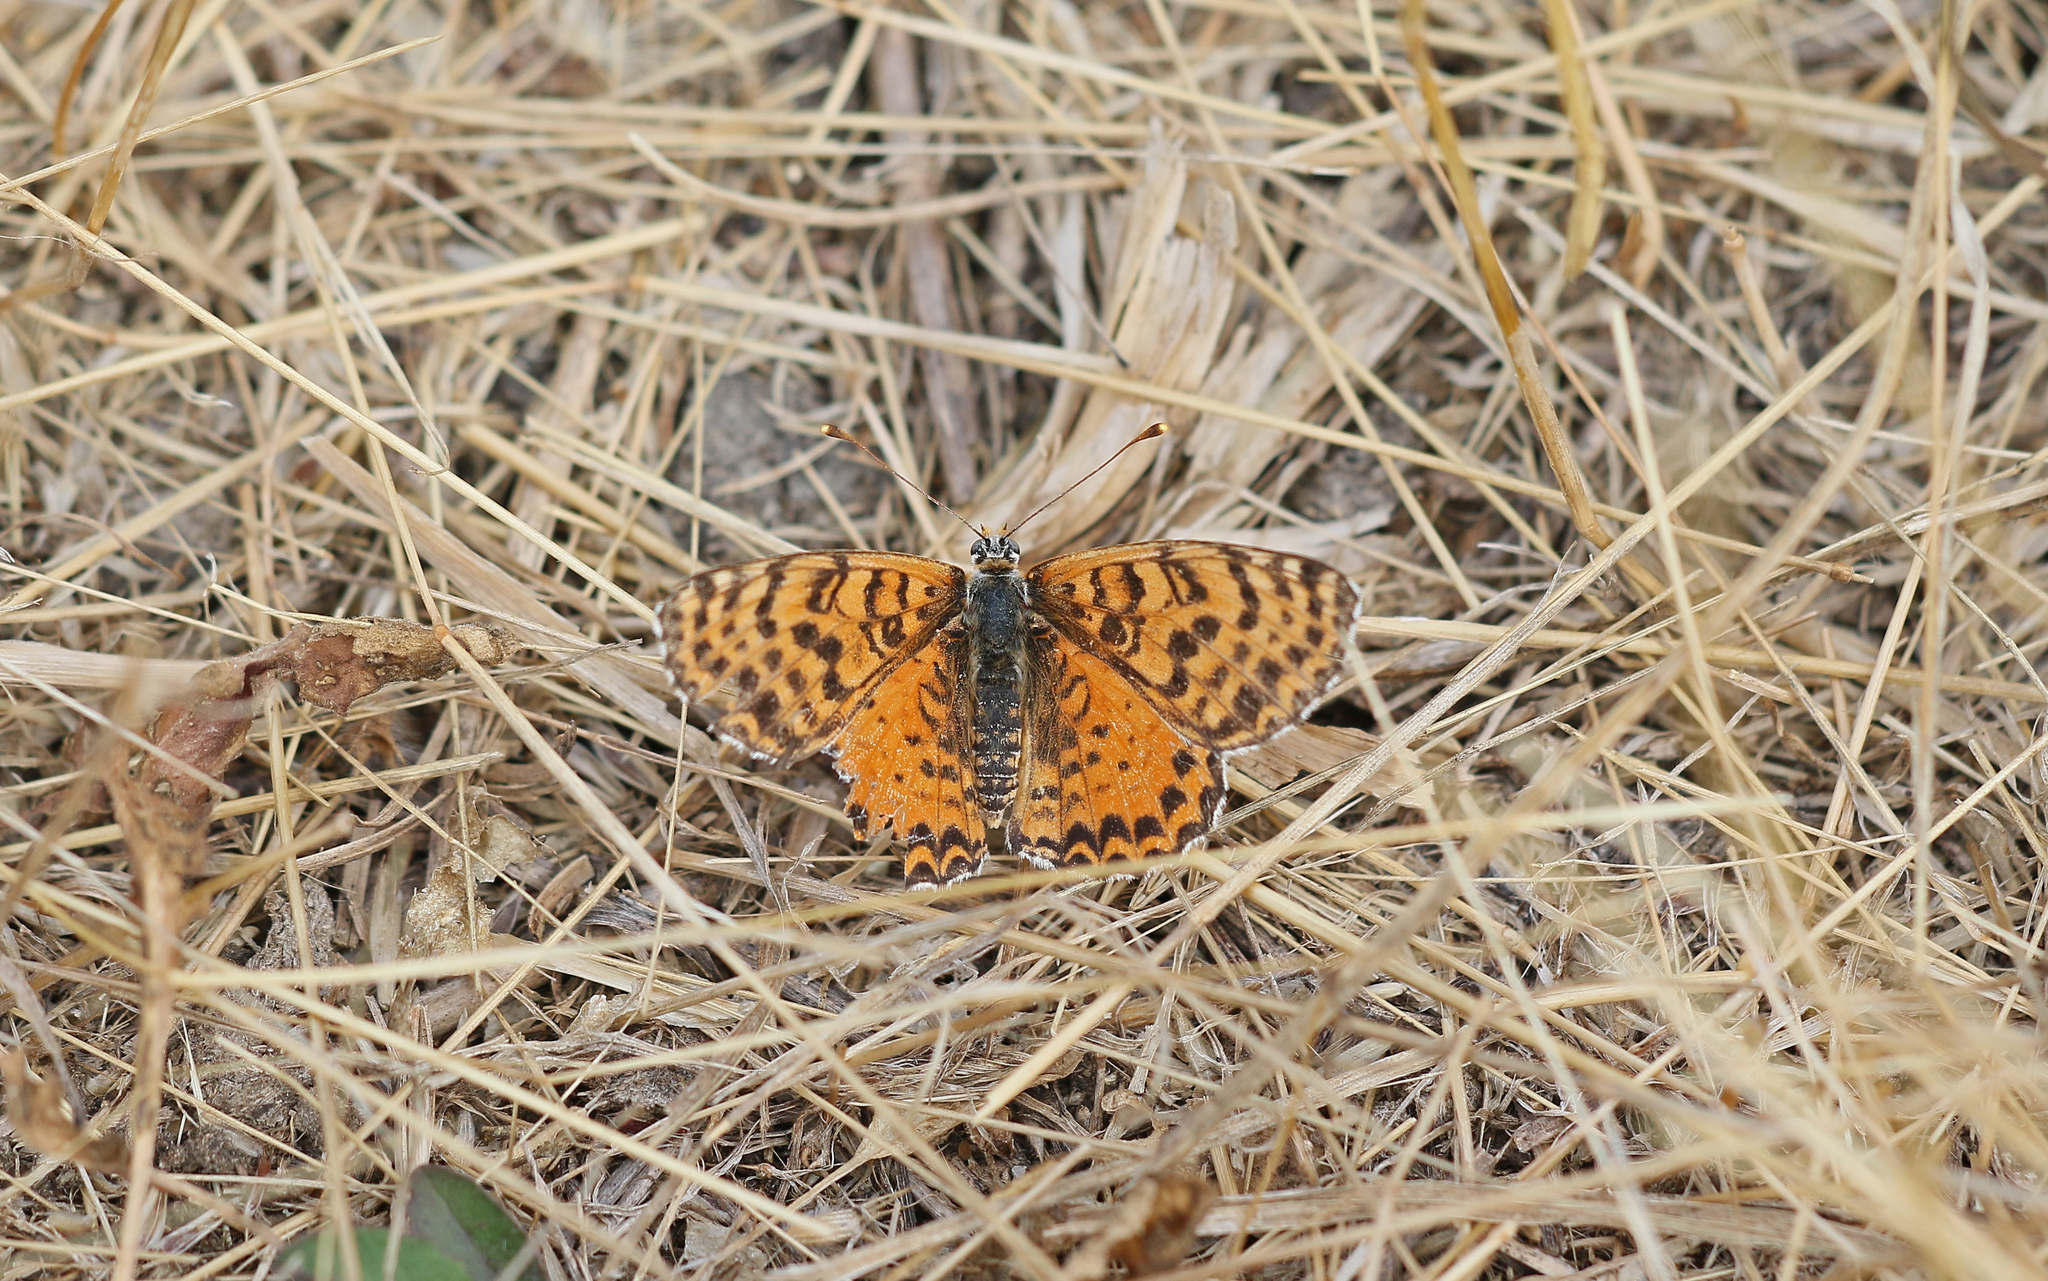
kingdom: Animalia
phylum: Arthropoda
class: Insecta
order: Lepidoptera
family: Nymphalidae
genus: Melitaea
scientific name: Melitaea didyma
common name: Spotted fritillary
